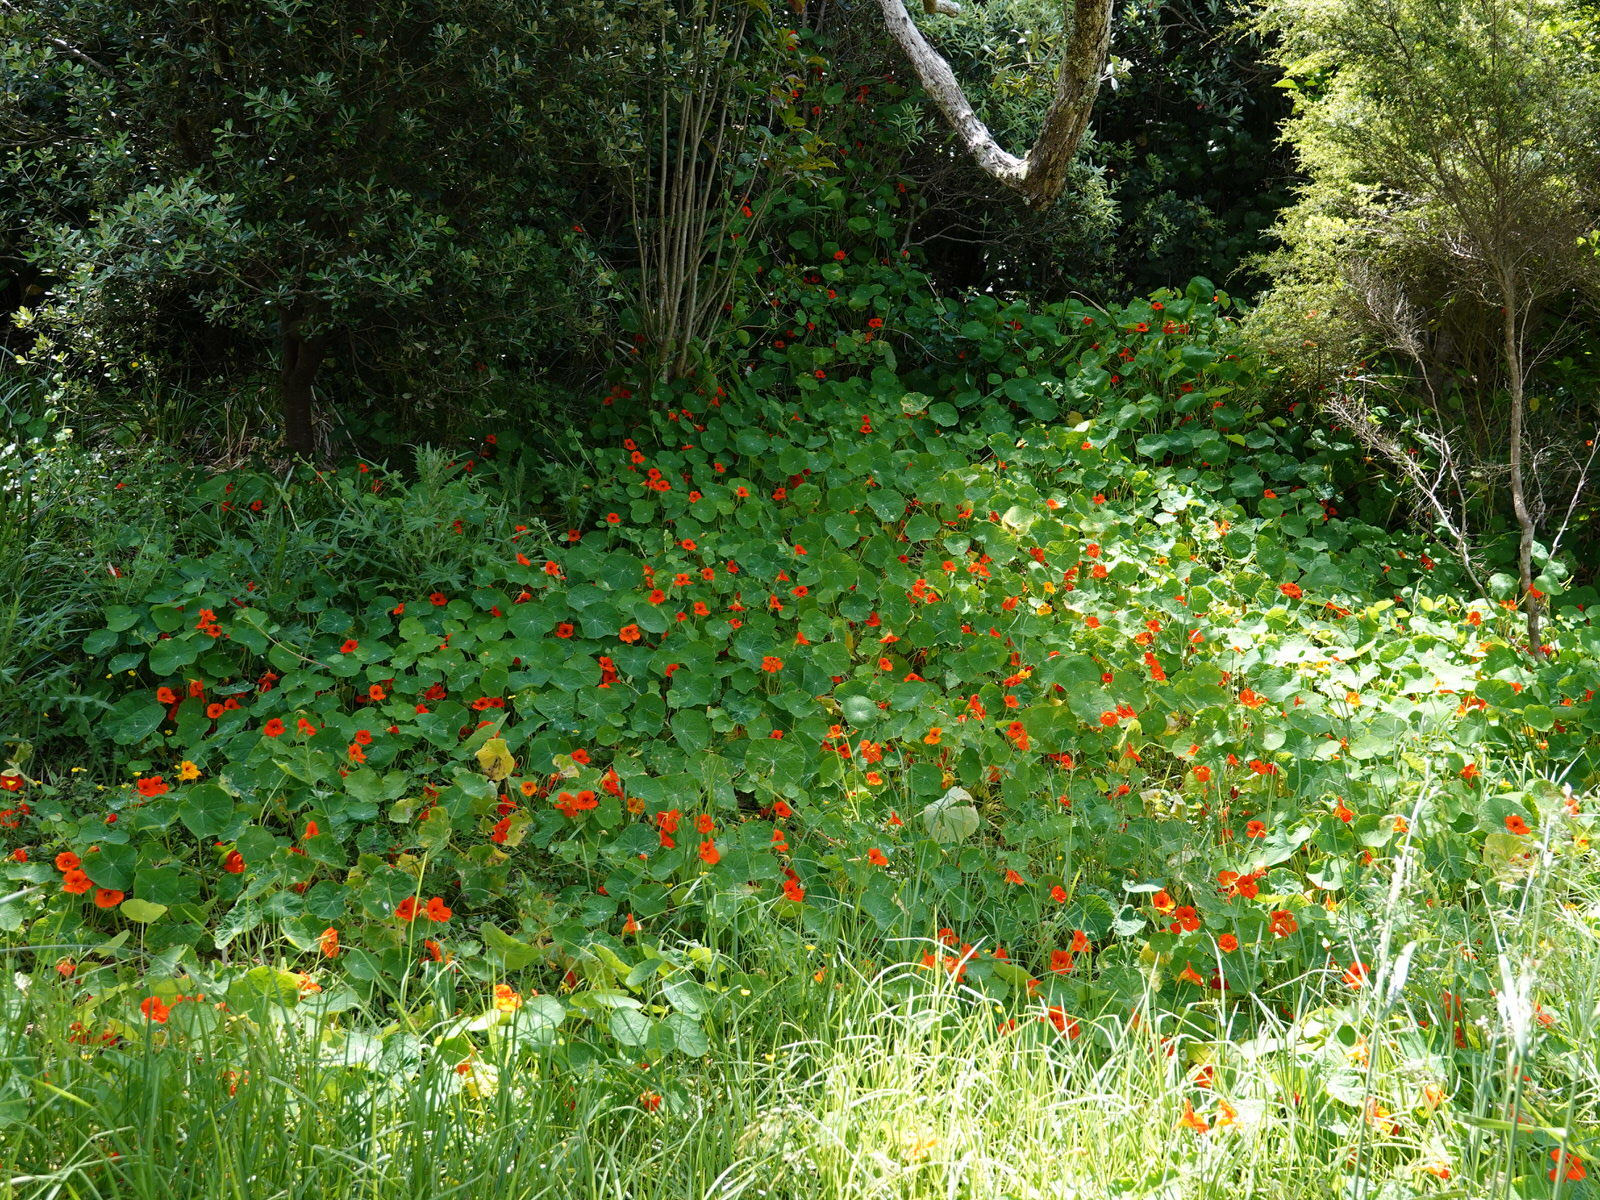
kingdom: Plantae
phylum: Tracheophyta
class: Magnoliopsida
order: Brassicales
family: Tropaeolaceae
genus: Tropaeolum
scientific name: Tropaeolum majus
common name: Nasturtium
